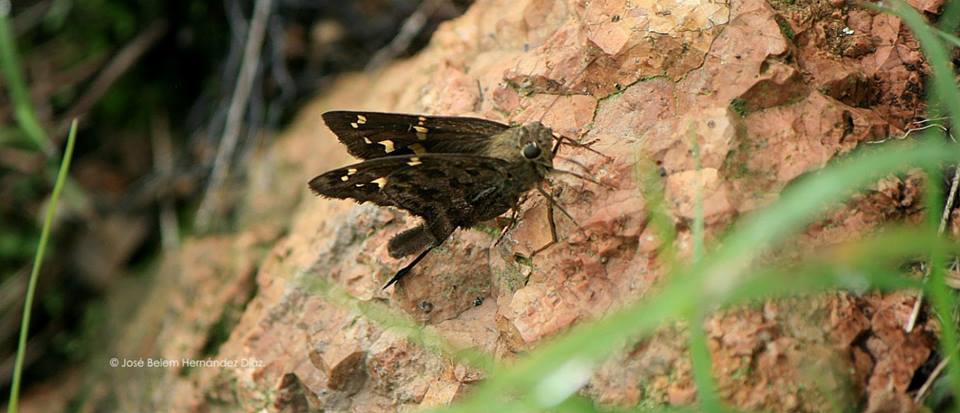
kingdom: Animalia
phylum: Arthropoda
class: Insecta
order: Lepidoptera
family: Hesperiidae
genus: Thorybes
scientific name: Thorybes
